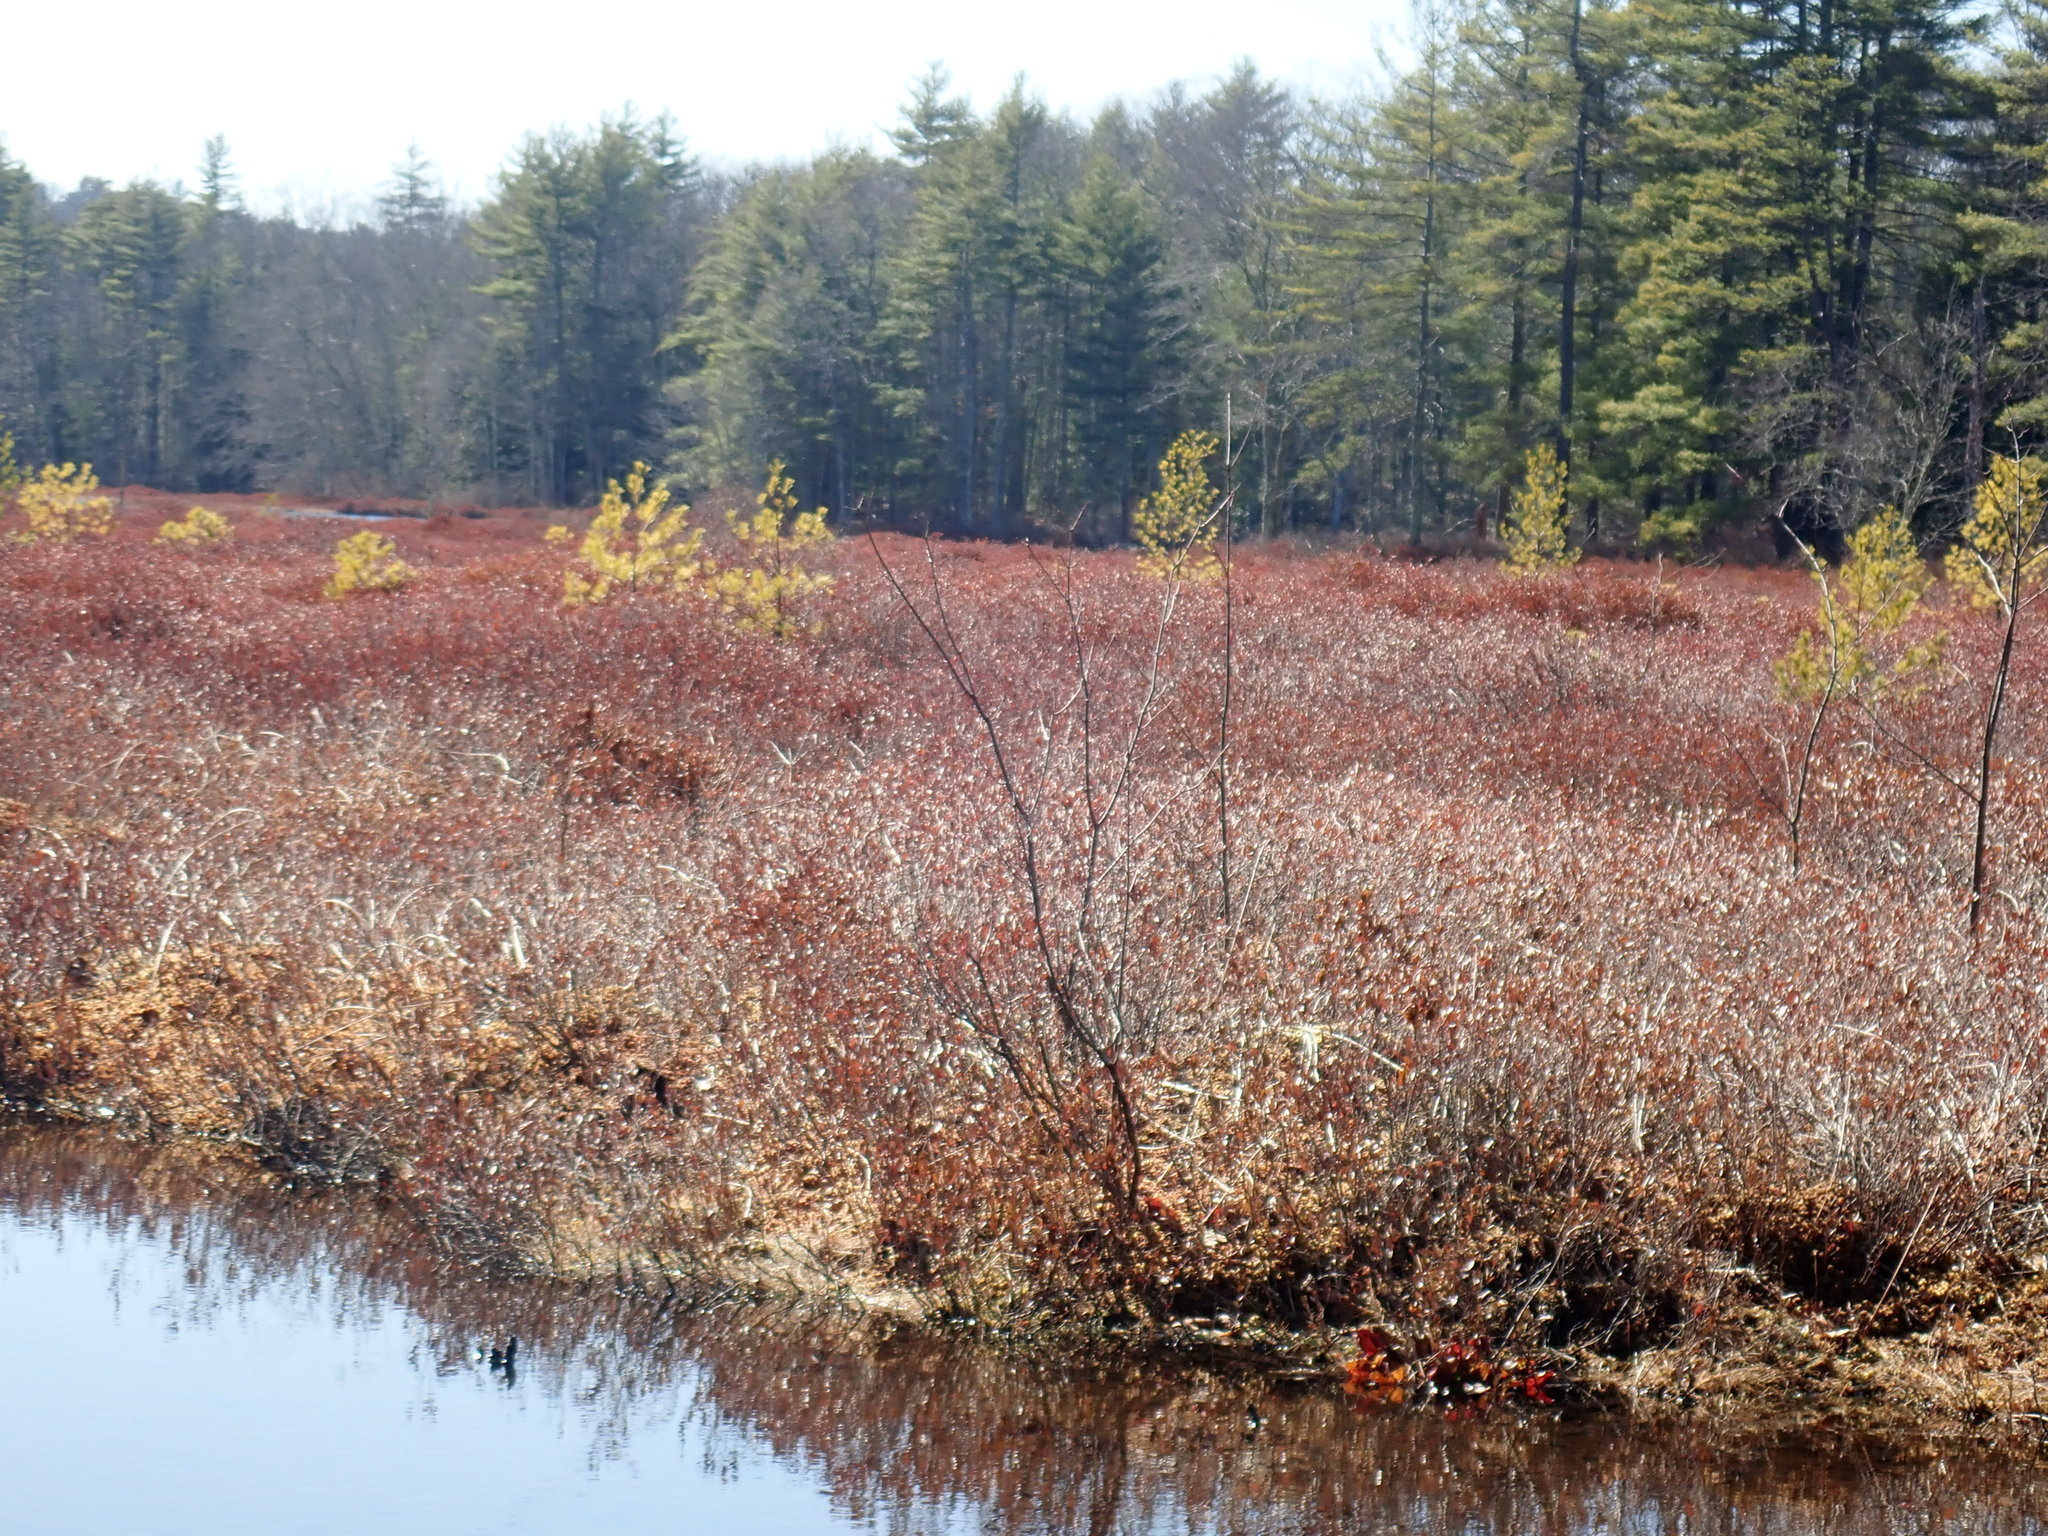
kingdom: Plantae
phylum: Tracheophyta
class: Magnoliopsida
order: Ericales
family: Ericaceae
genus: Chamaedaphne
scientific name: Chamaedaphne calyculata
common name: Leatherleaf
